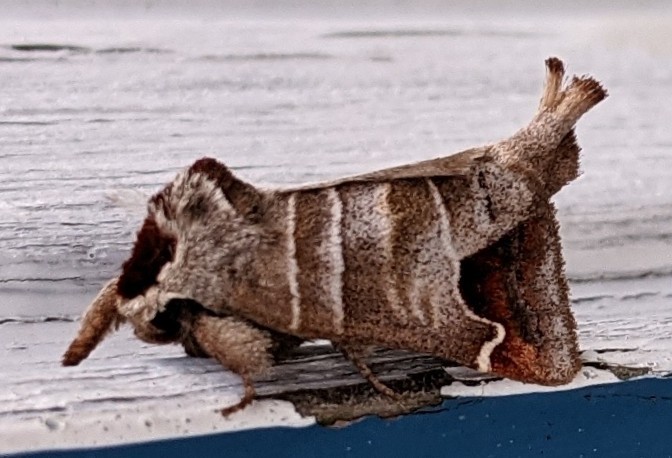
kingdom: Animalia
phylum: Arthropoda
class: Insecta
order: Lepidoptera
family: Notodontidae
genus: Clostera
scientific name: Clostera albosigma
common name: Sigmoid prominent
